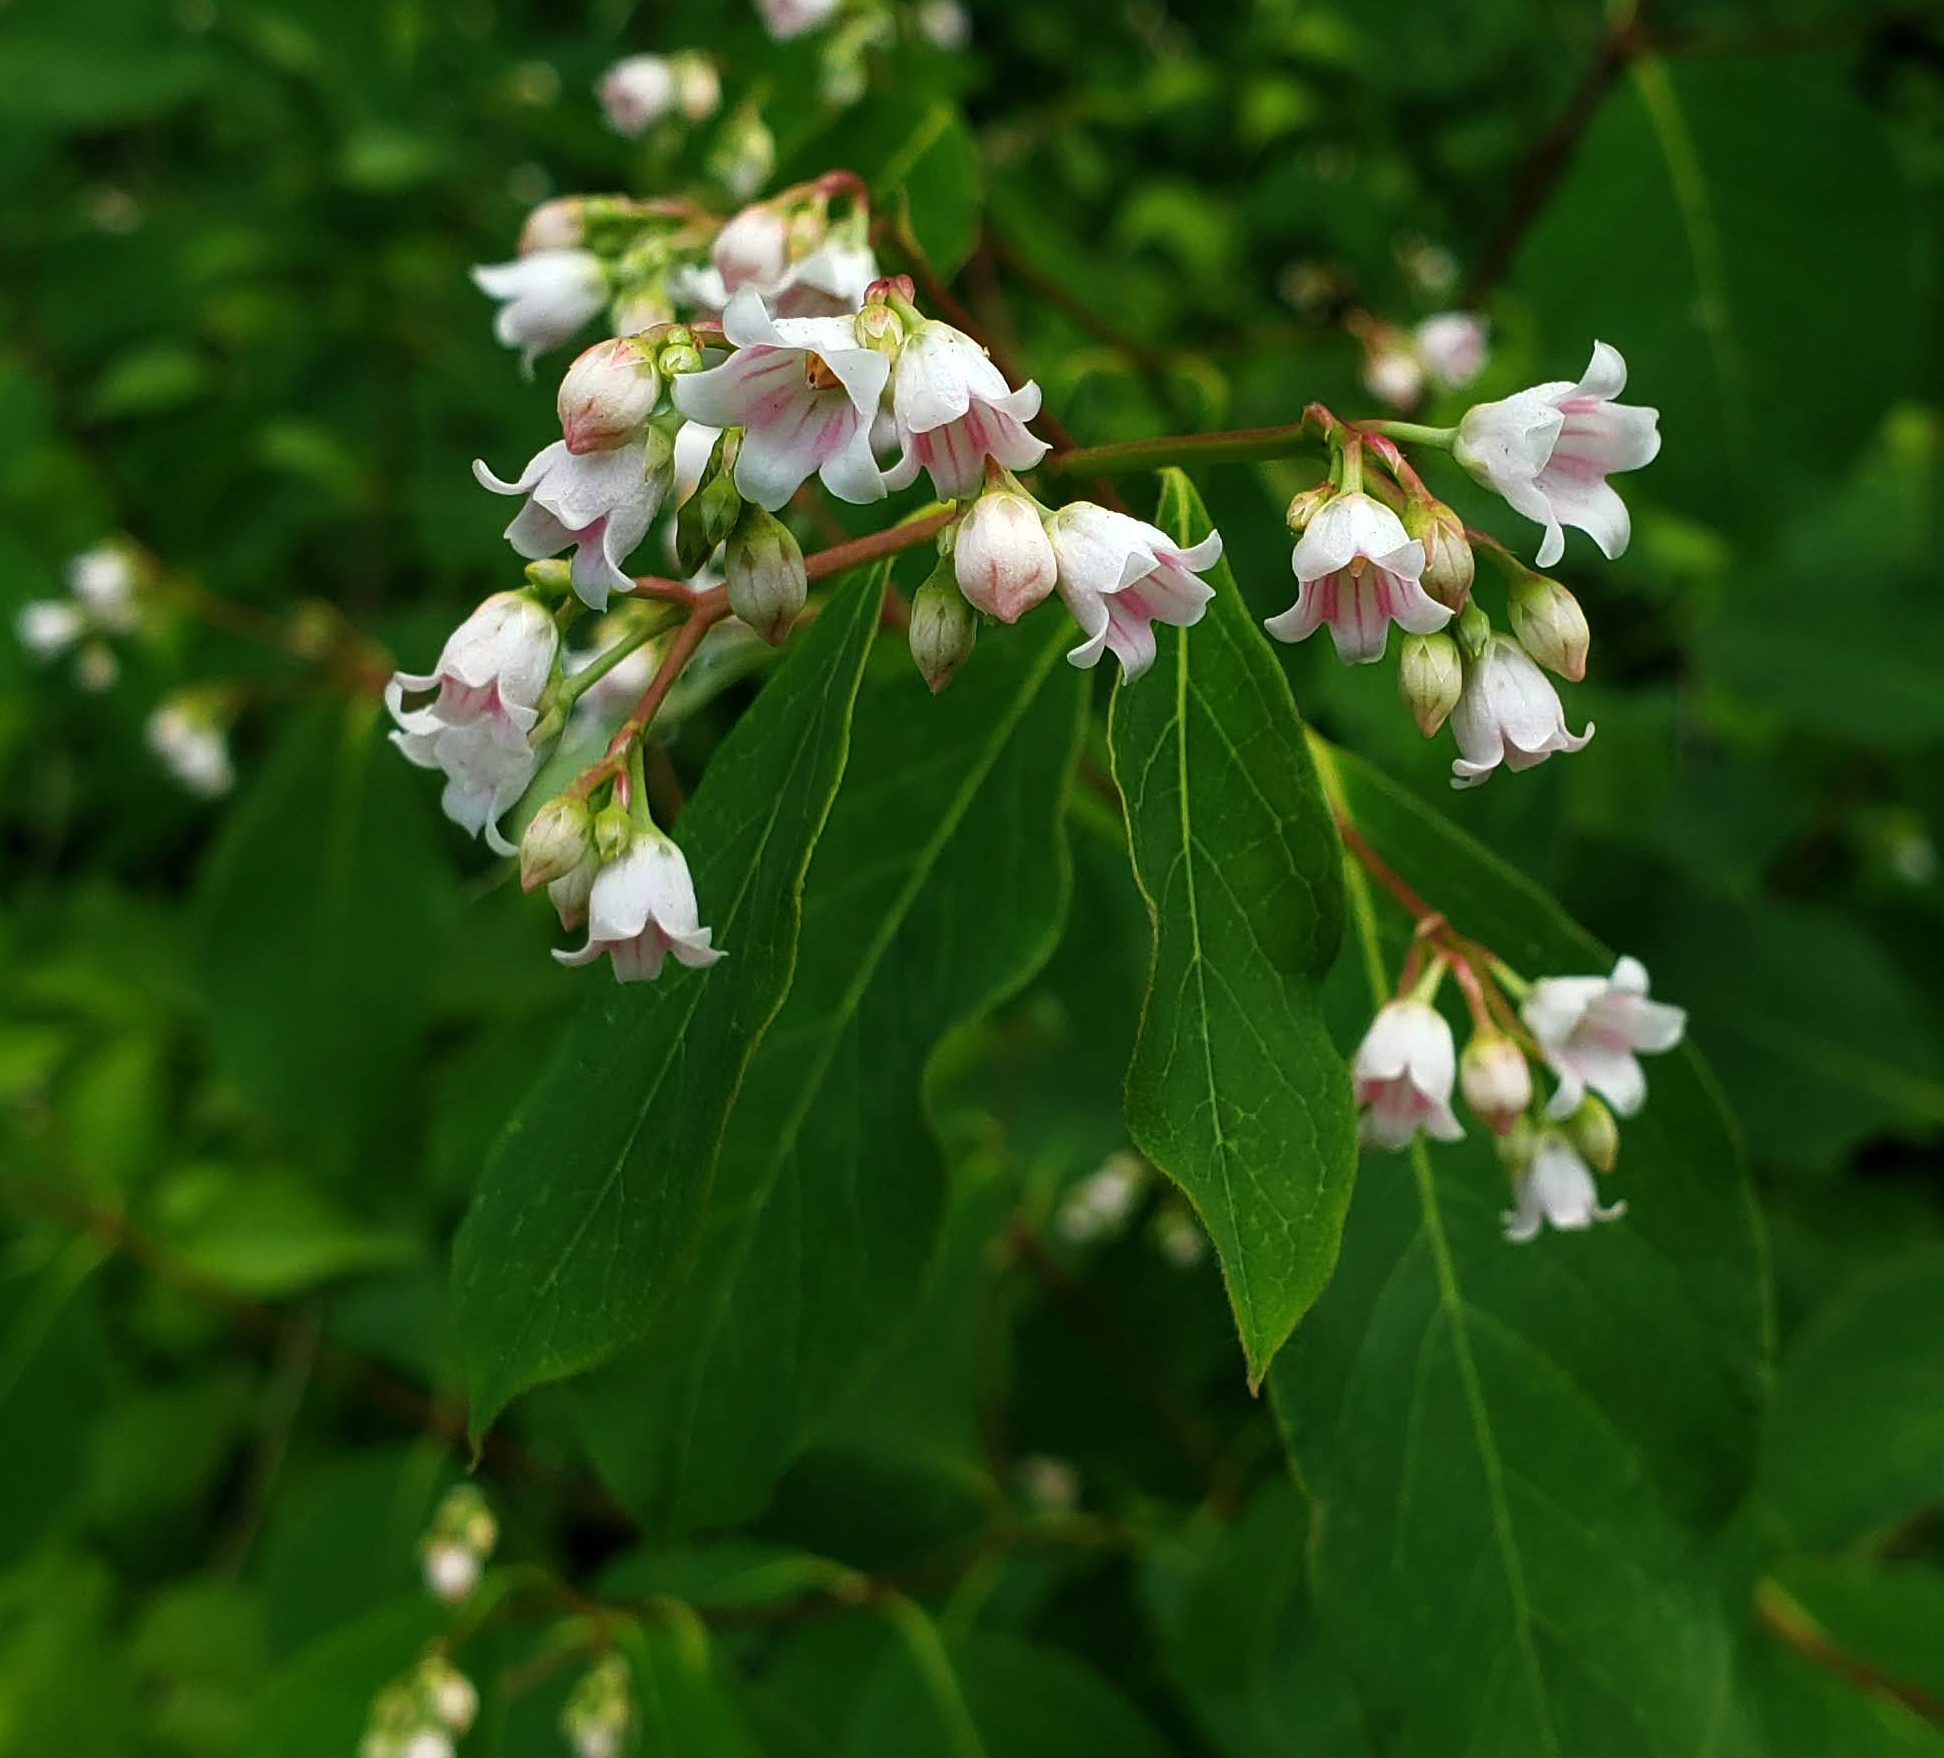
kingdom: Plantae
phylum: Tracheophyta
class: Magnoliopsida
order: Gentianales
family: Apocynaceae
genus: Apocynum
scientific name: Apocynum androsaemifolium
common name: Spreading dogbane
